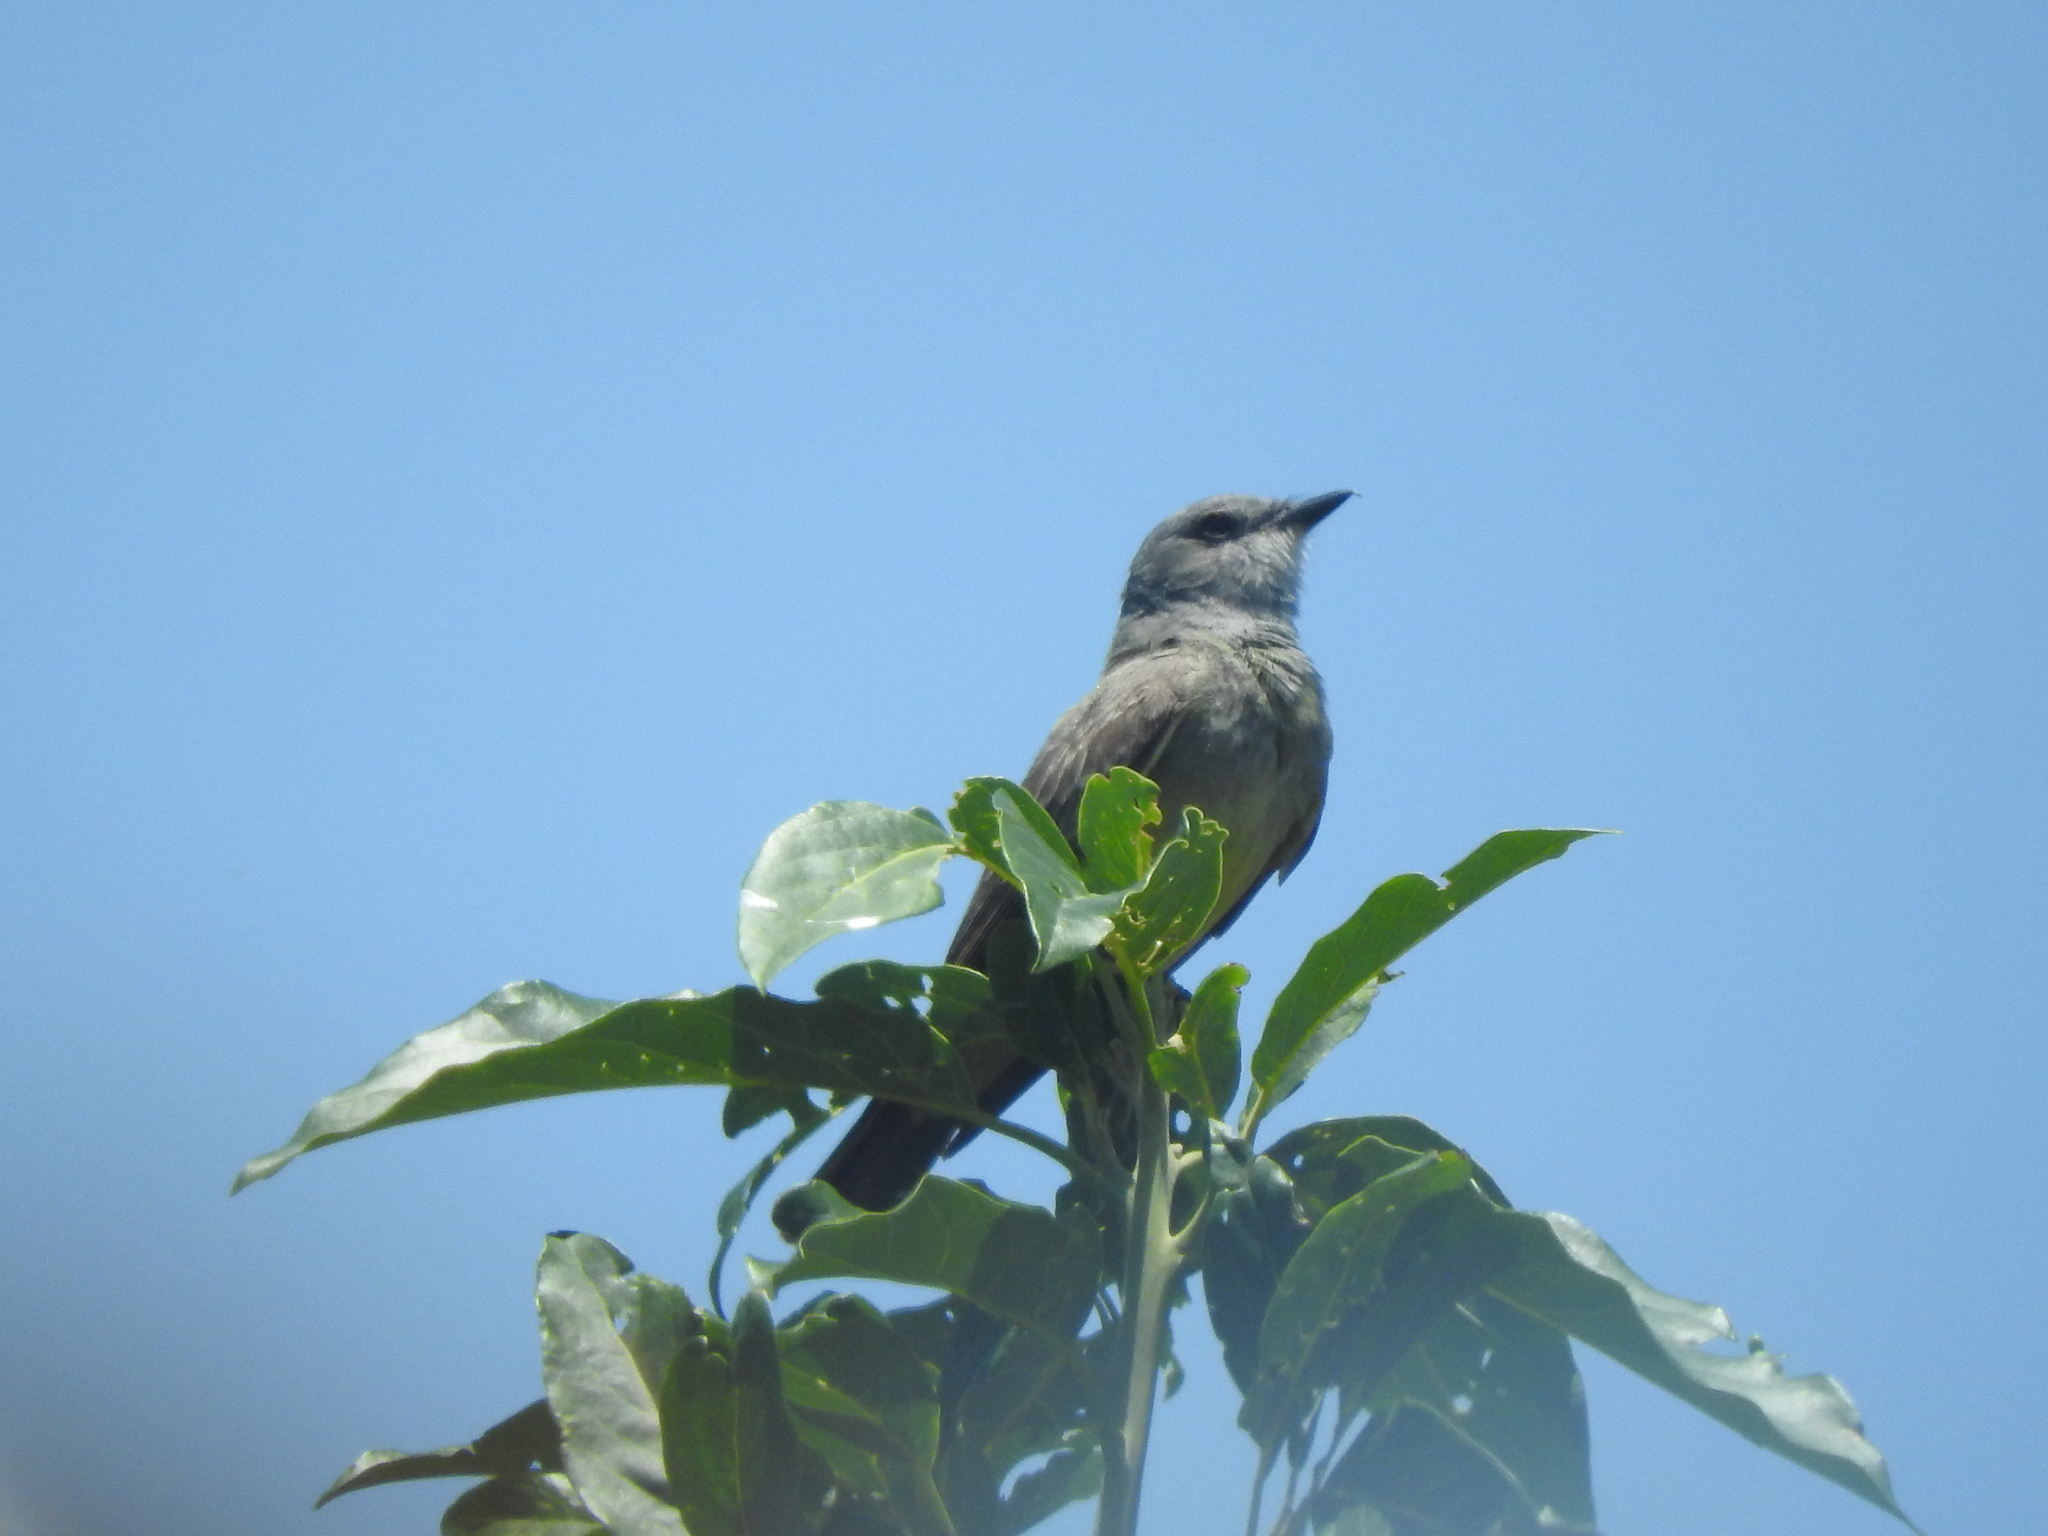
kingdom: Animalia
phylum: Chordata
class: Aves
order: Passeriformes
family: Tyrannidae
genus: Tyrannus
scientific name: Tyrannus vociferans
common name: Cassin's kingbird
